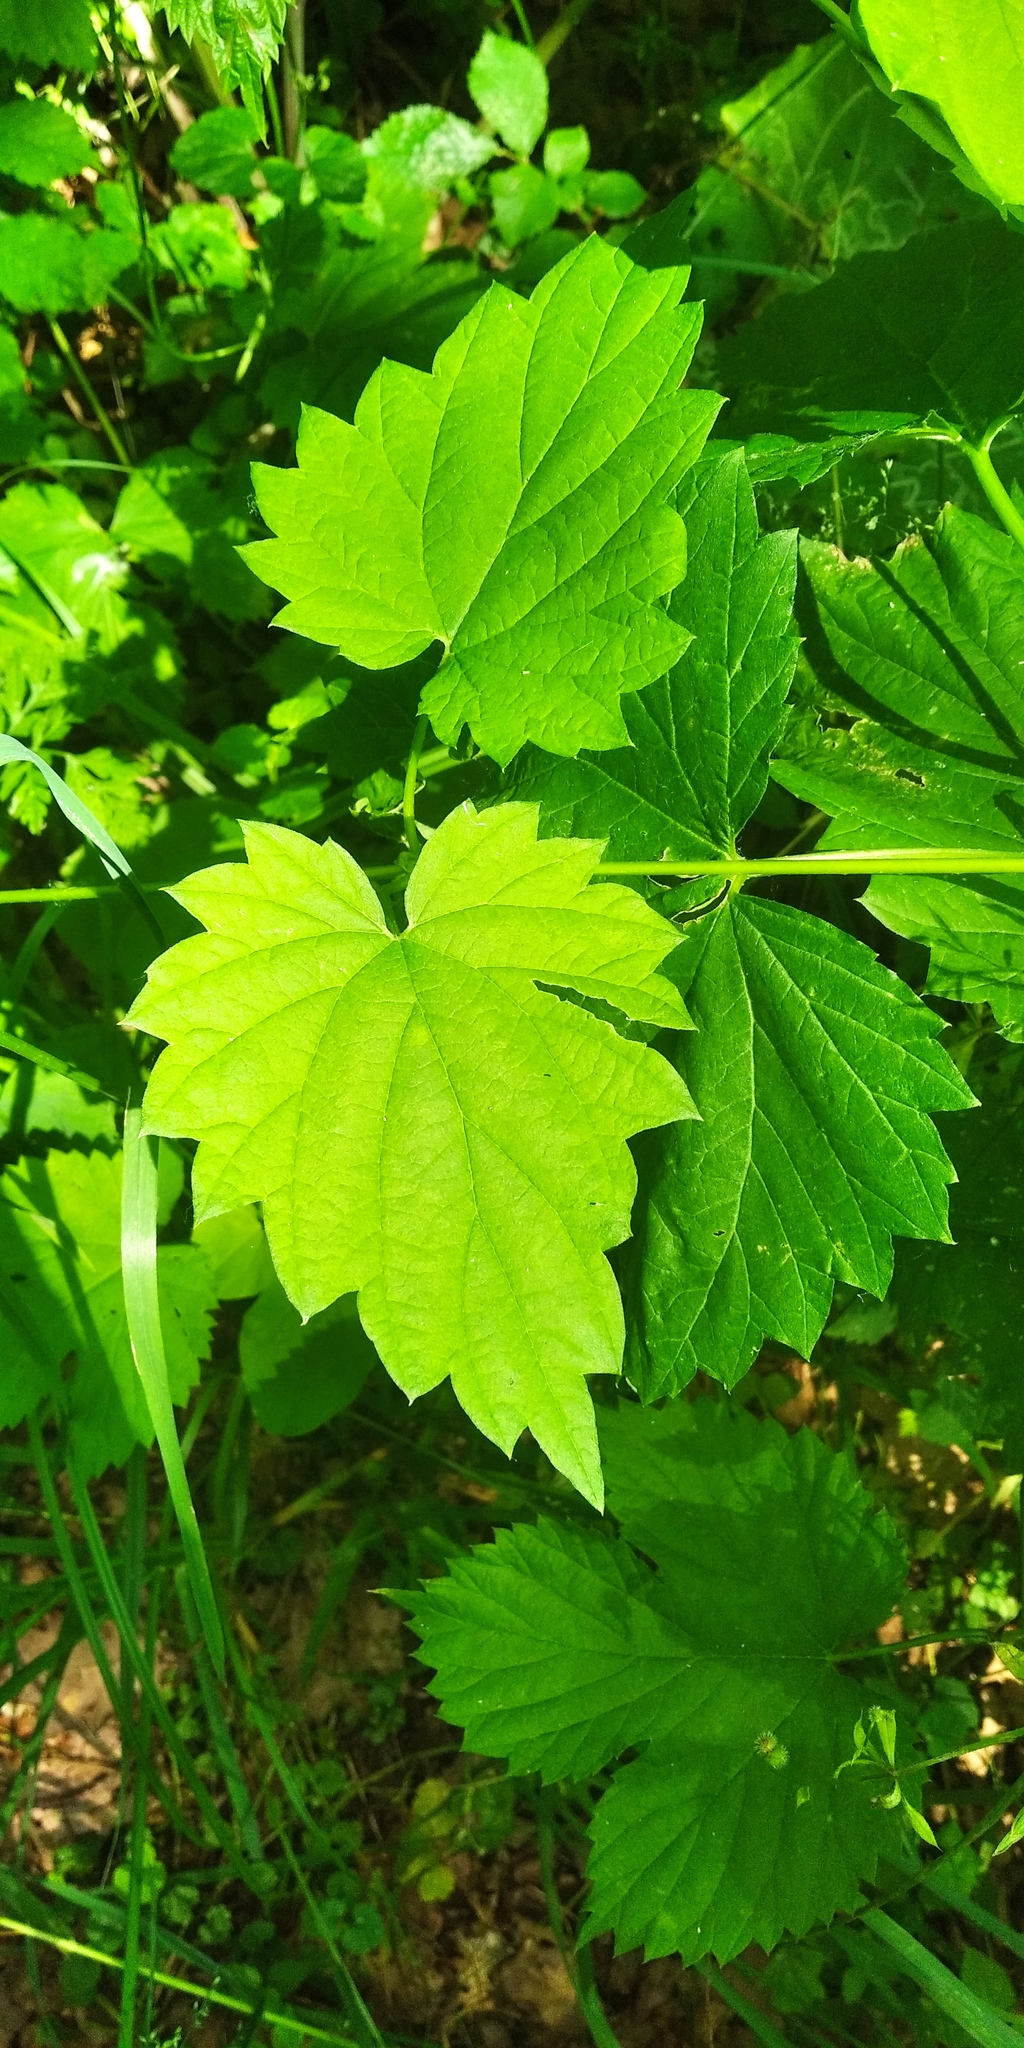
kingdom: Plantae
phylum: Tracheophyta
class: Magnoliopsida
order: Rosales
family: Cannabaceae
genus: Humulus
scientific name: Humulus lupulus
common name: Hop
